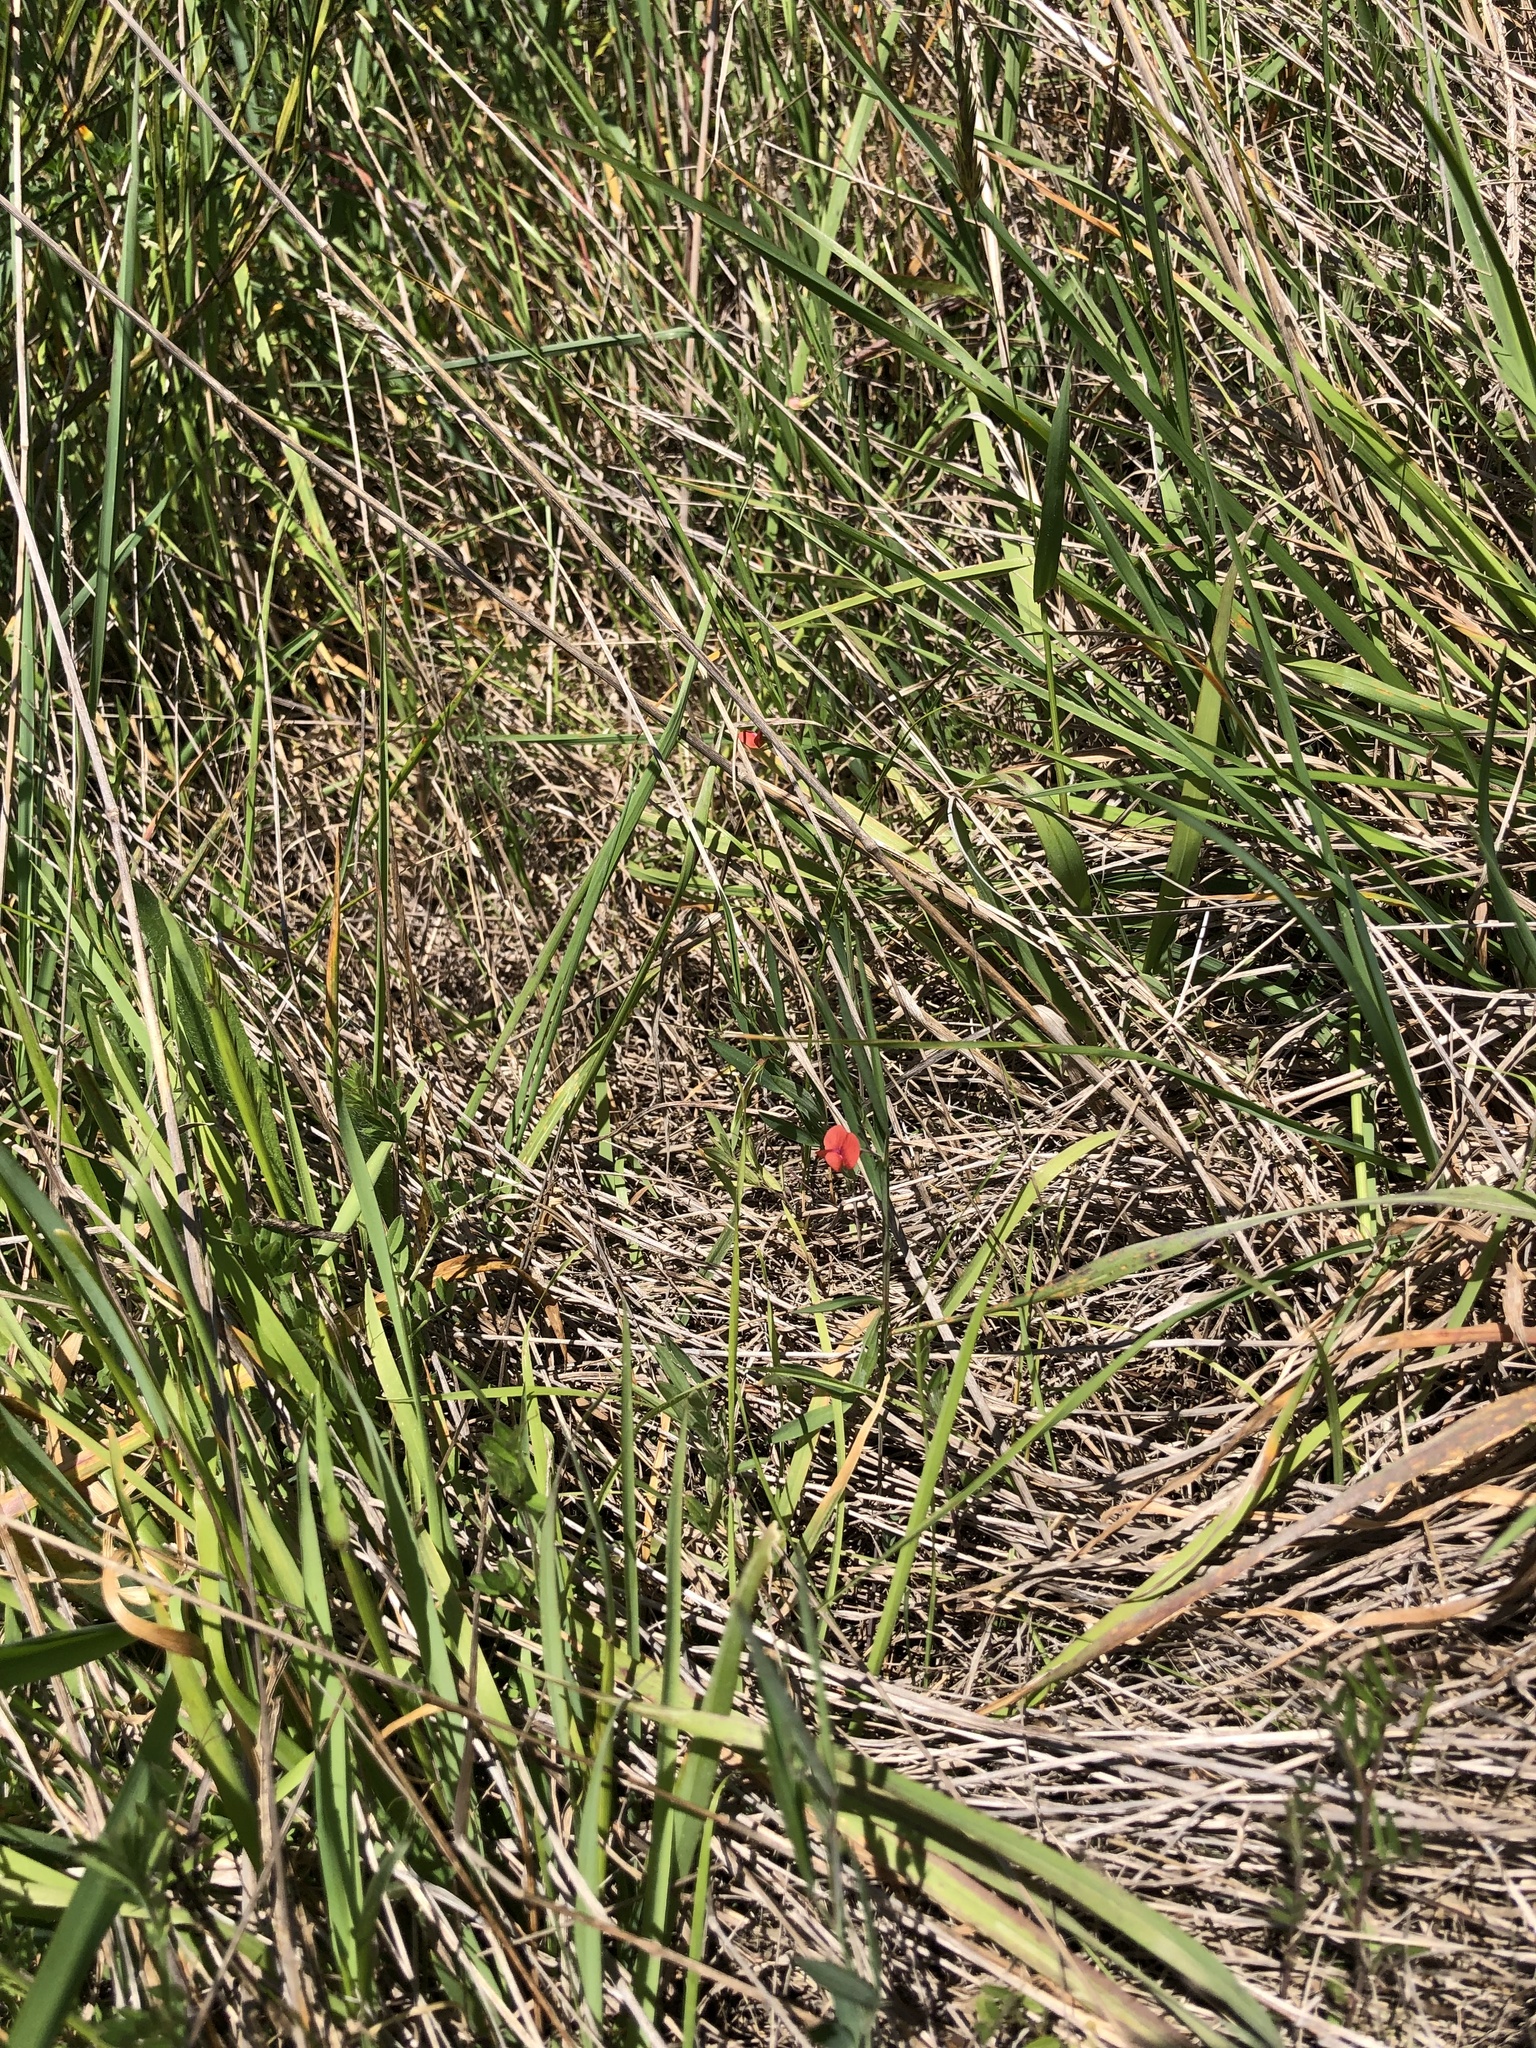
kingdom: Plantae
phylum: Tracheophyta
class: Magnoliopsida
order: Fabales
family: Fabaceae
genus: Lathyrus
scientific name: Lathyrus sphaericus
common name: Grass pea
